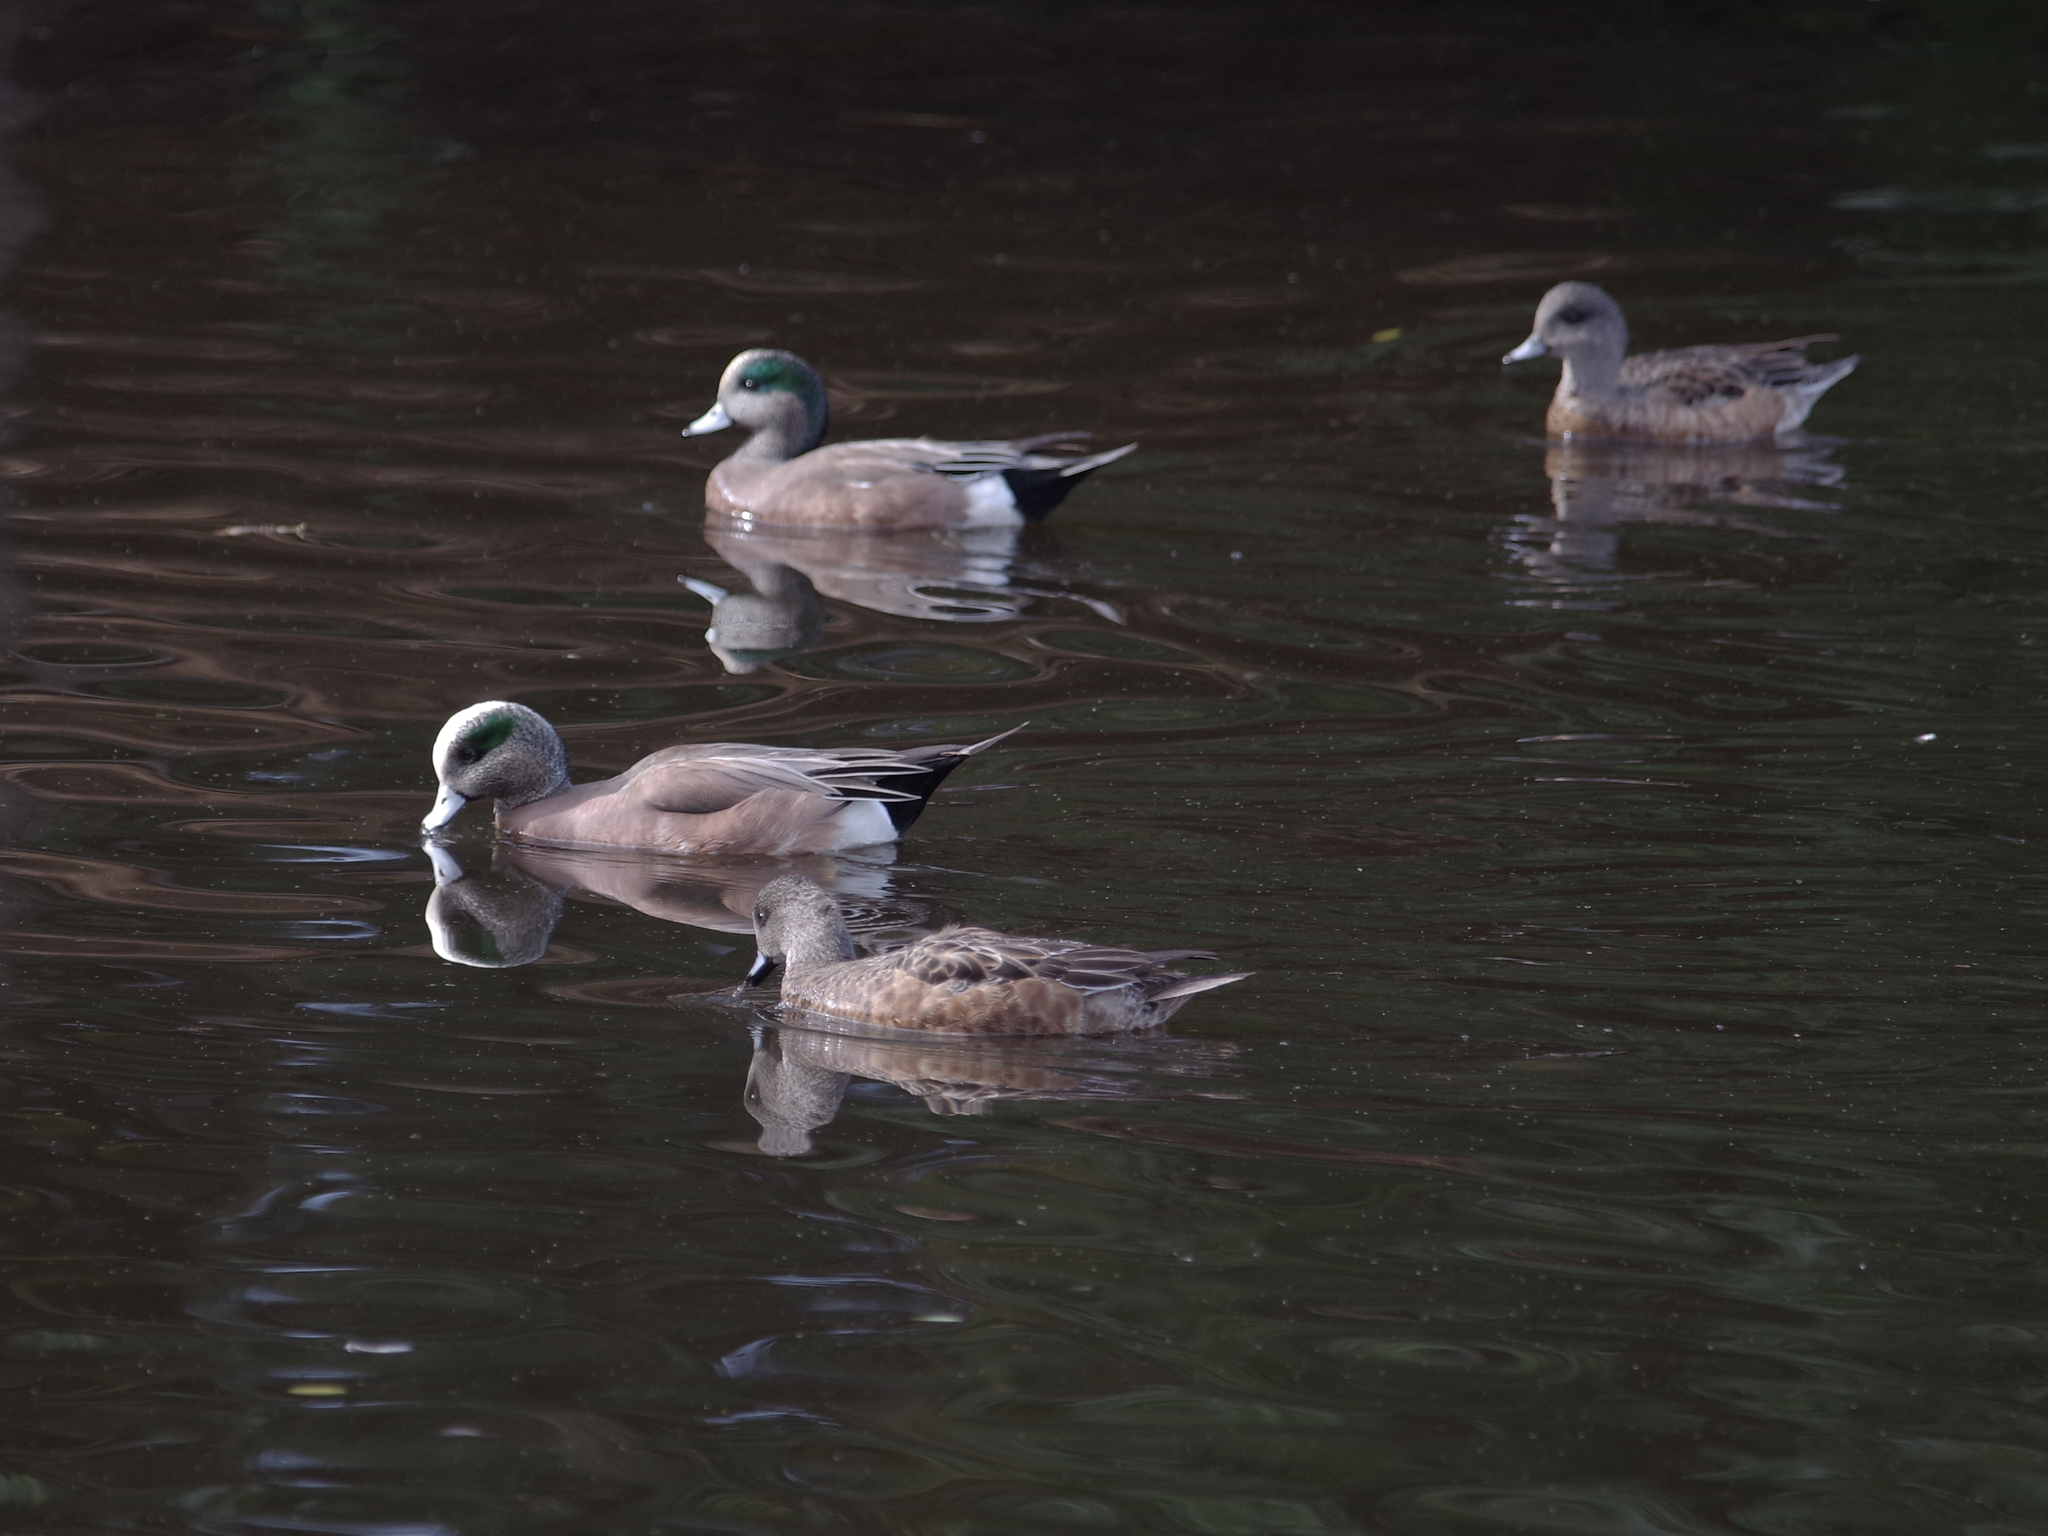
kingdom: Animalia
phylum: Chordata
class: Aves
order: Anseriformes
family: Anatidae
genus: Mareca
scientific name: Mareca americana
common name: American wigeon
